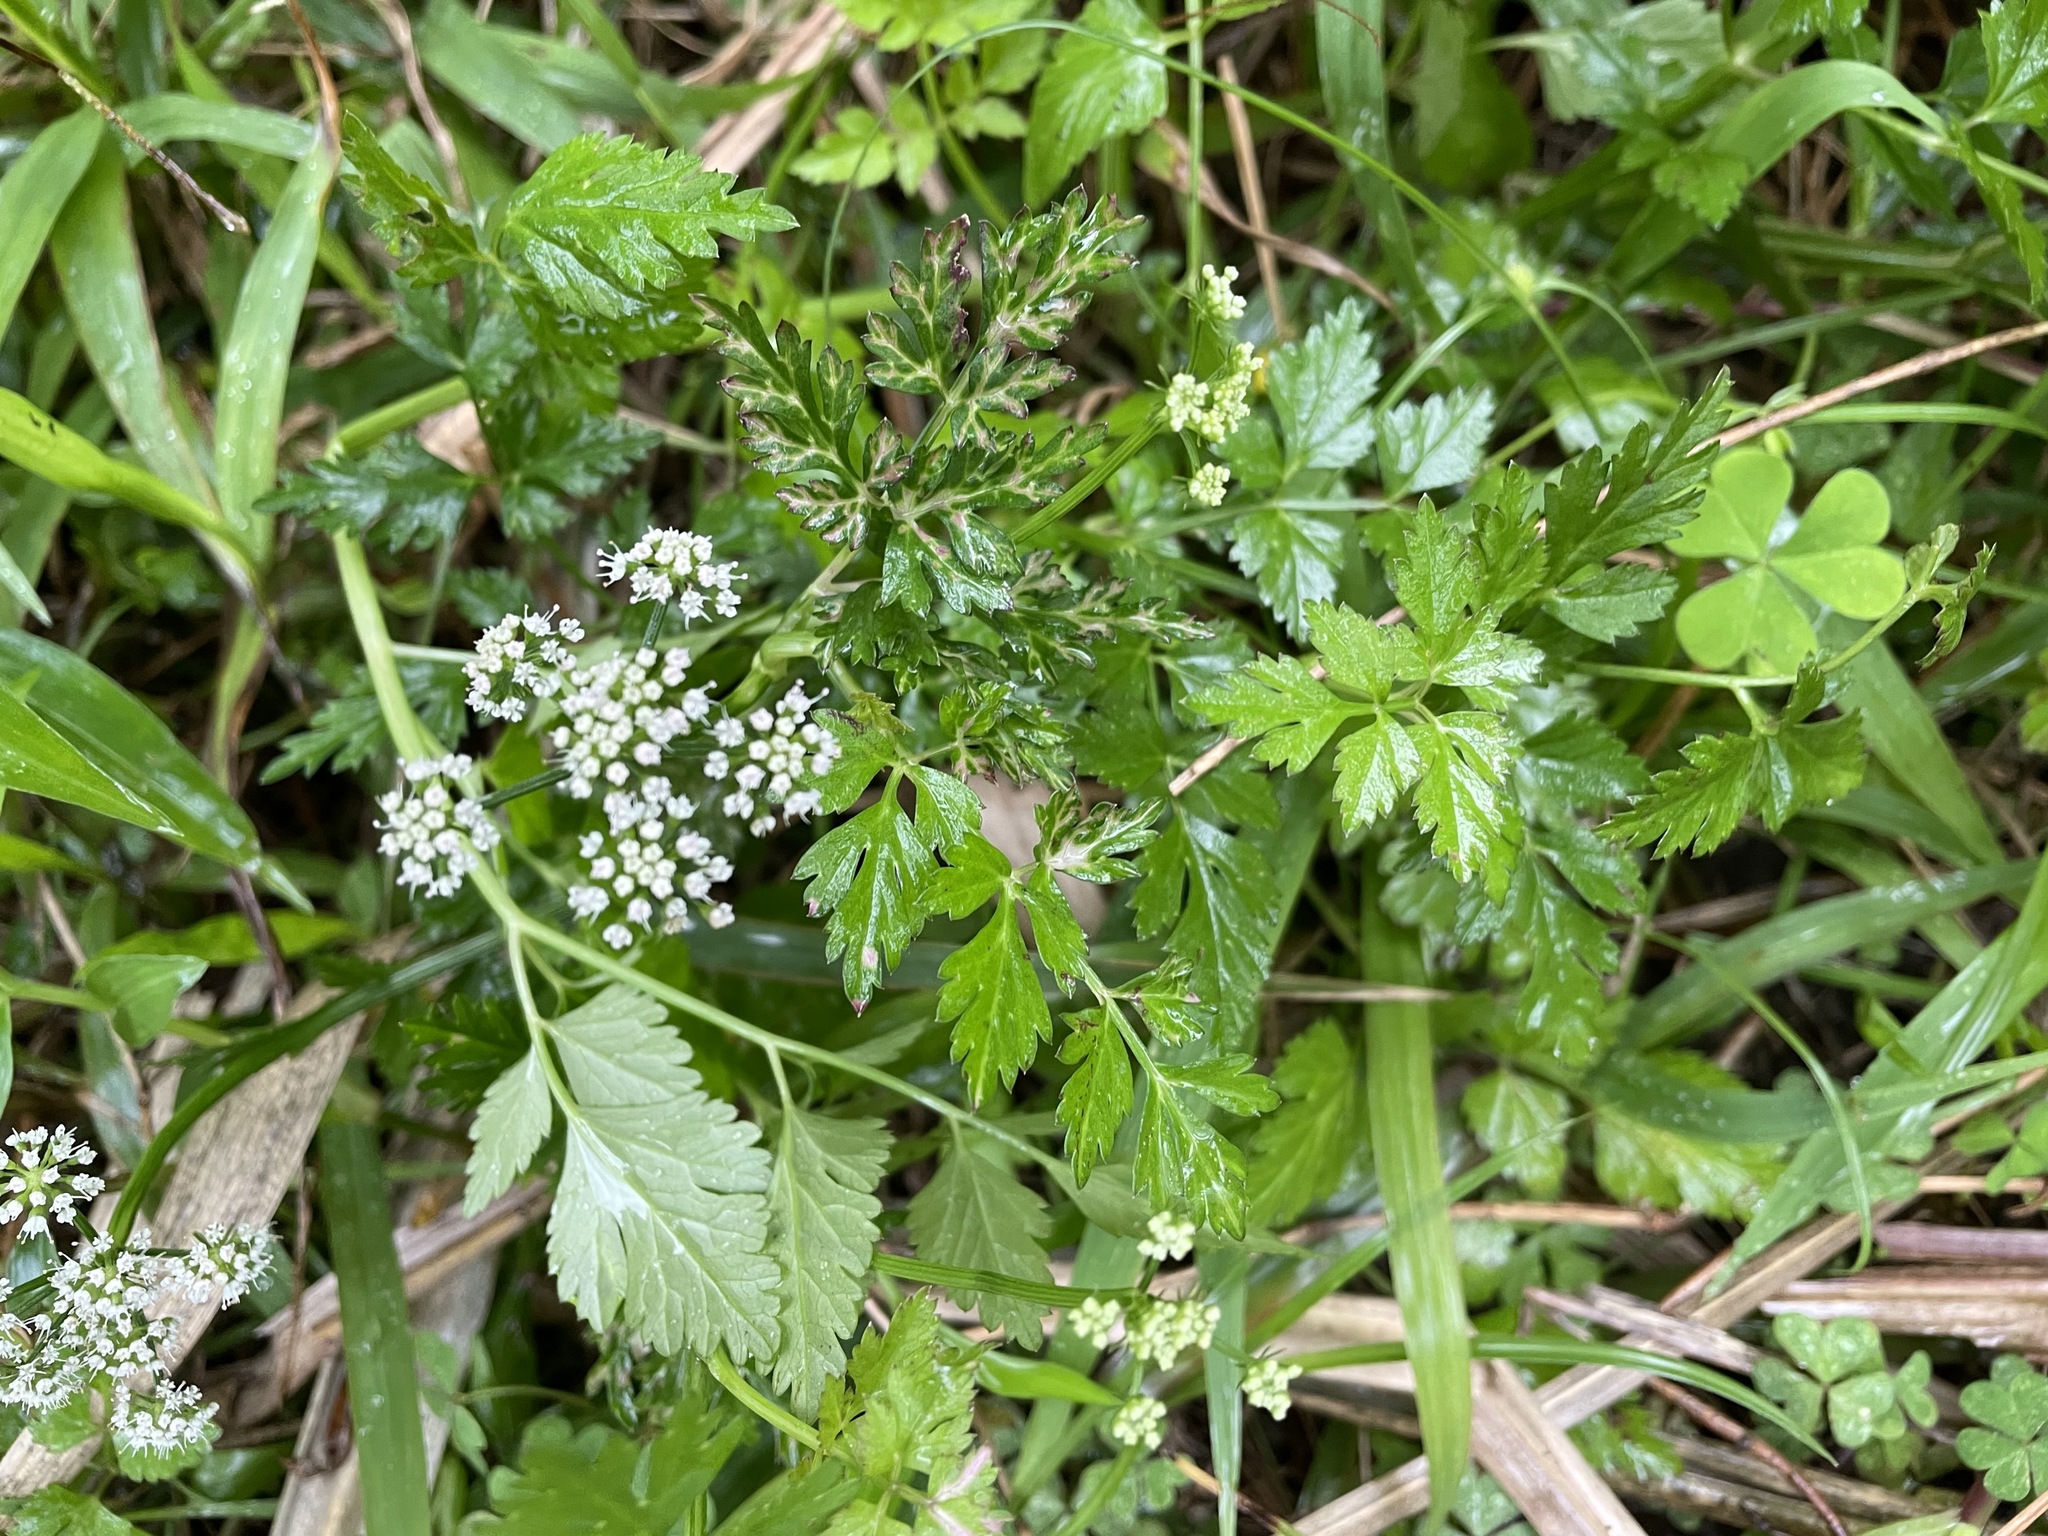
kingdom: Plantae
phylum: Tracheophyta
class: Magnoliopsida
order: Apiales
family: Apiaceae
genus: Oenanthe
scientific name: Oenanthe javanica
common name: Java water-dropwort
